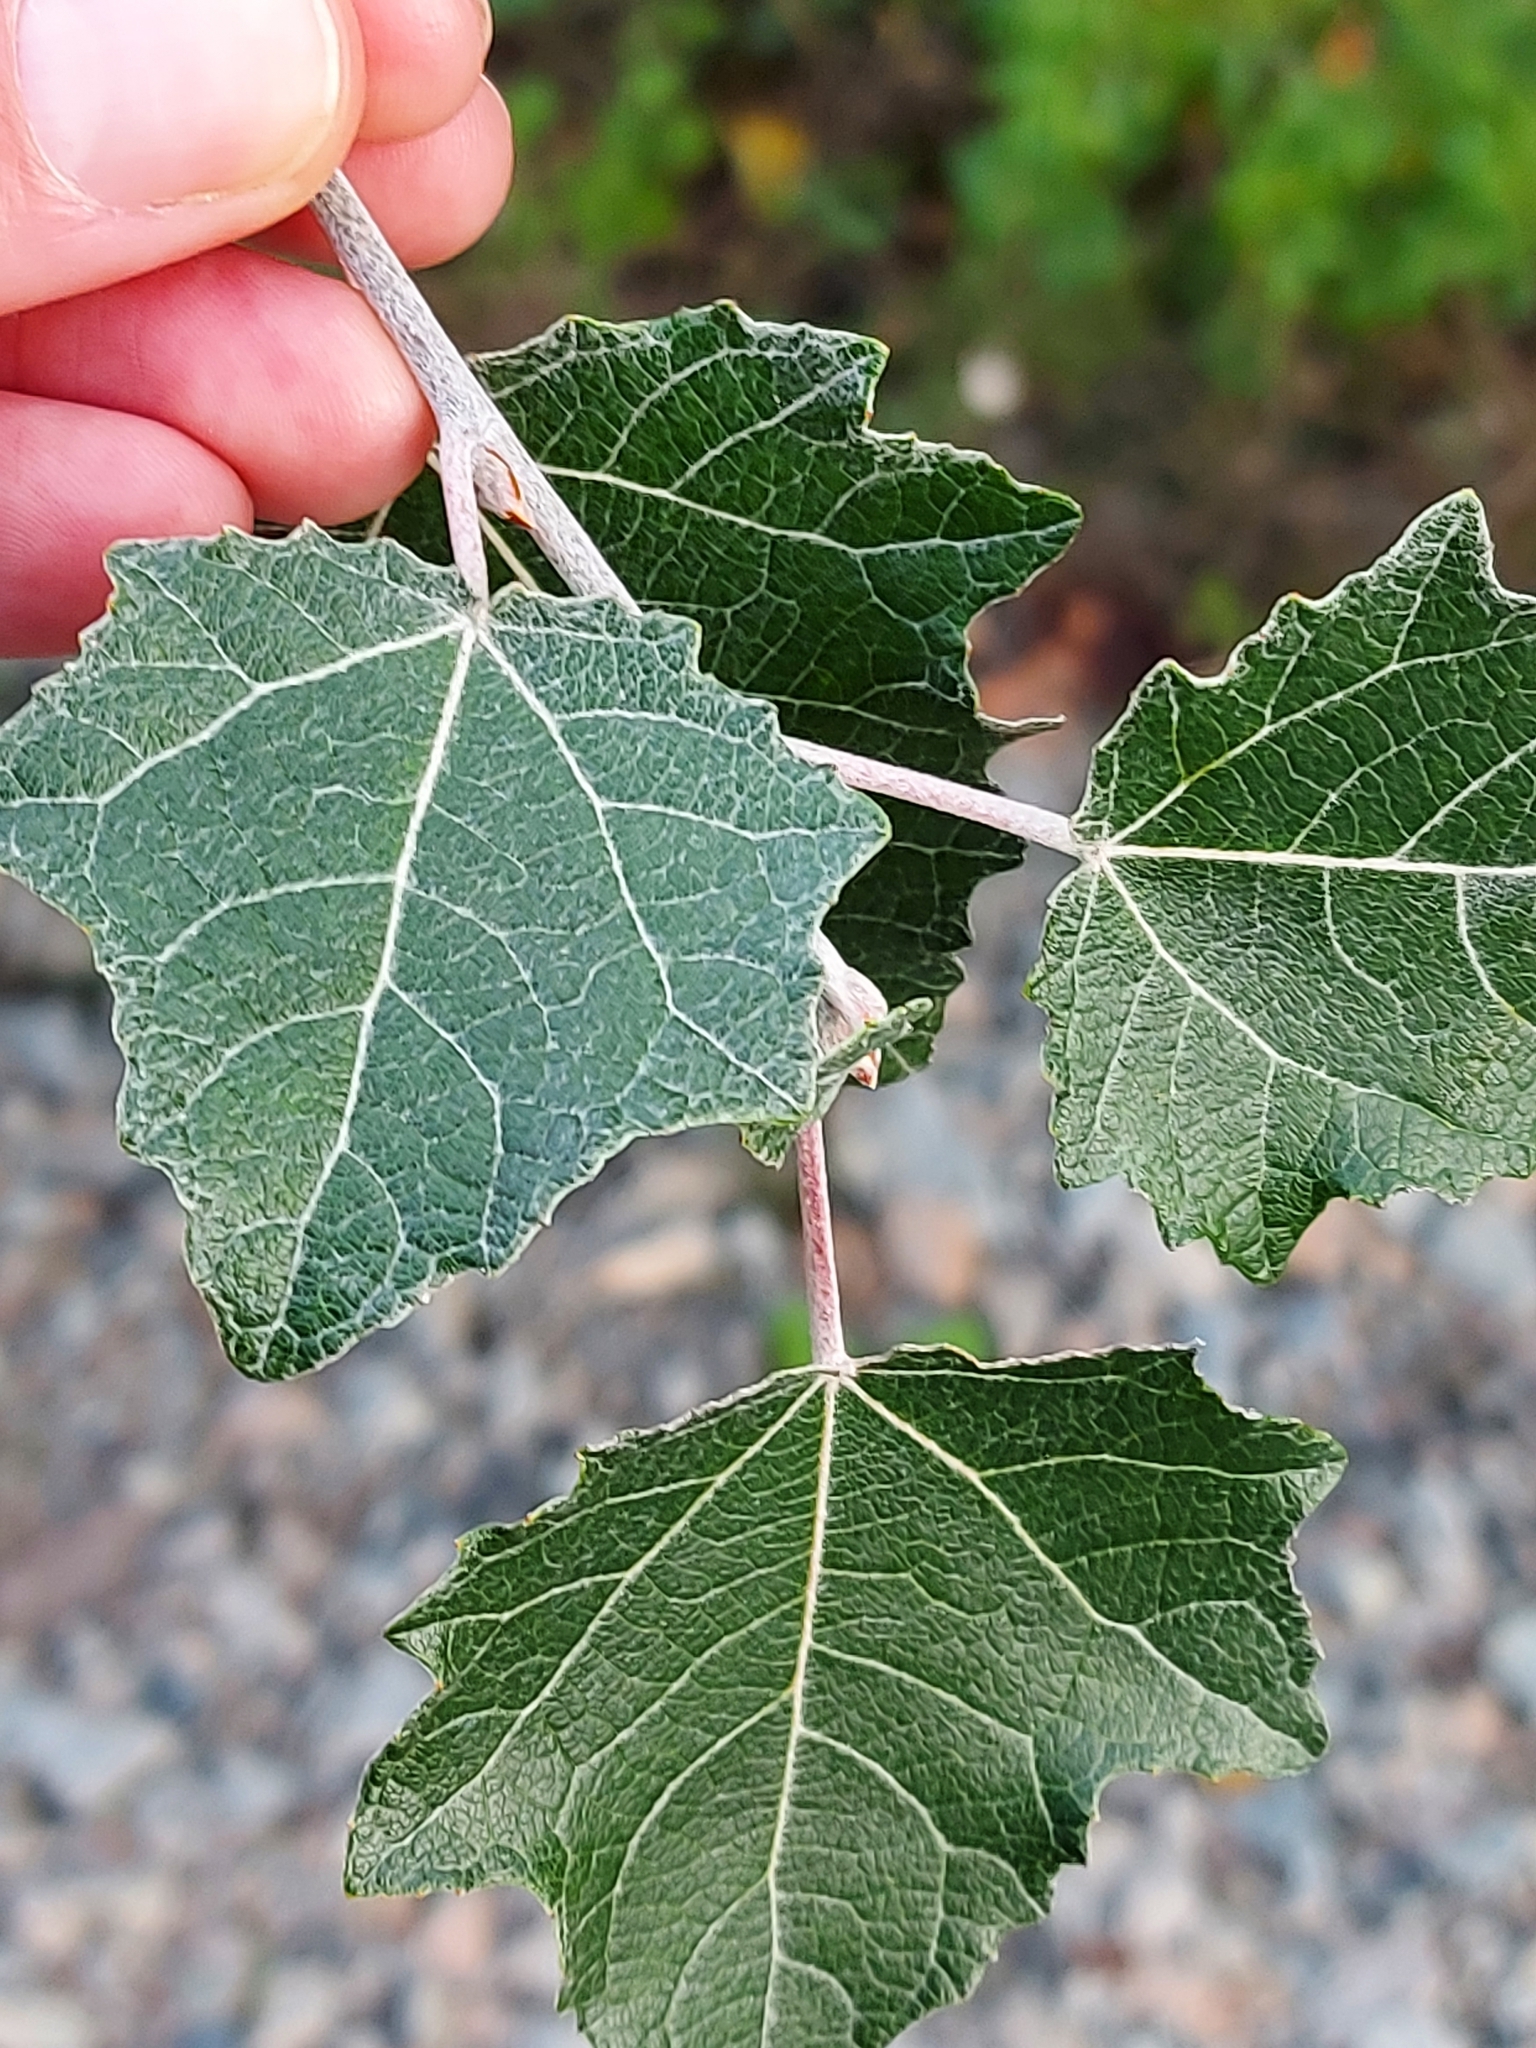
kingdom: Plantae
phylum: Tracheophyta
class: Magnoliopsida
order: Malpighiales
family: Salicaceae
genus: Populus
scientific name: Populus alba
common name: White poplar
